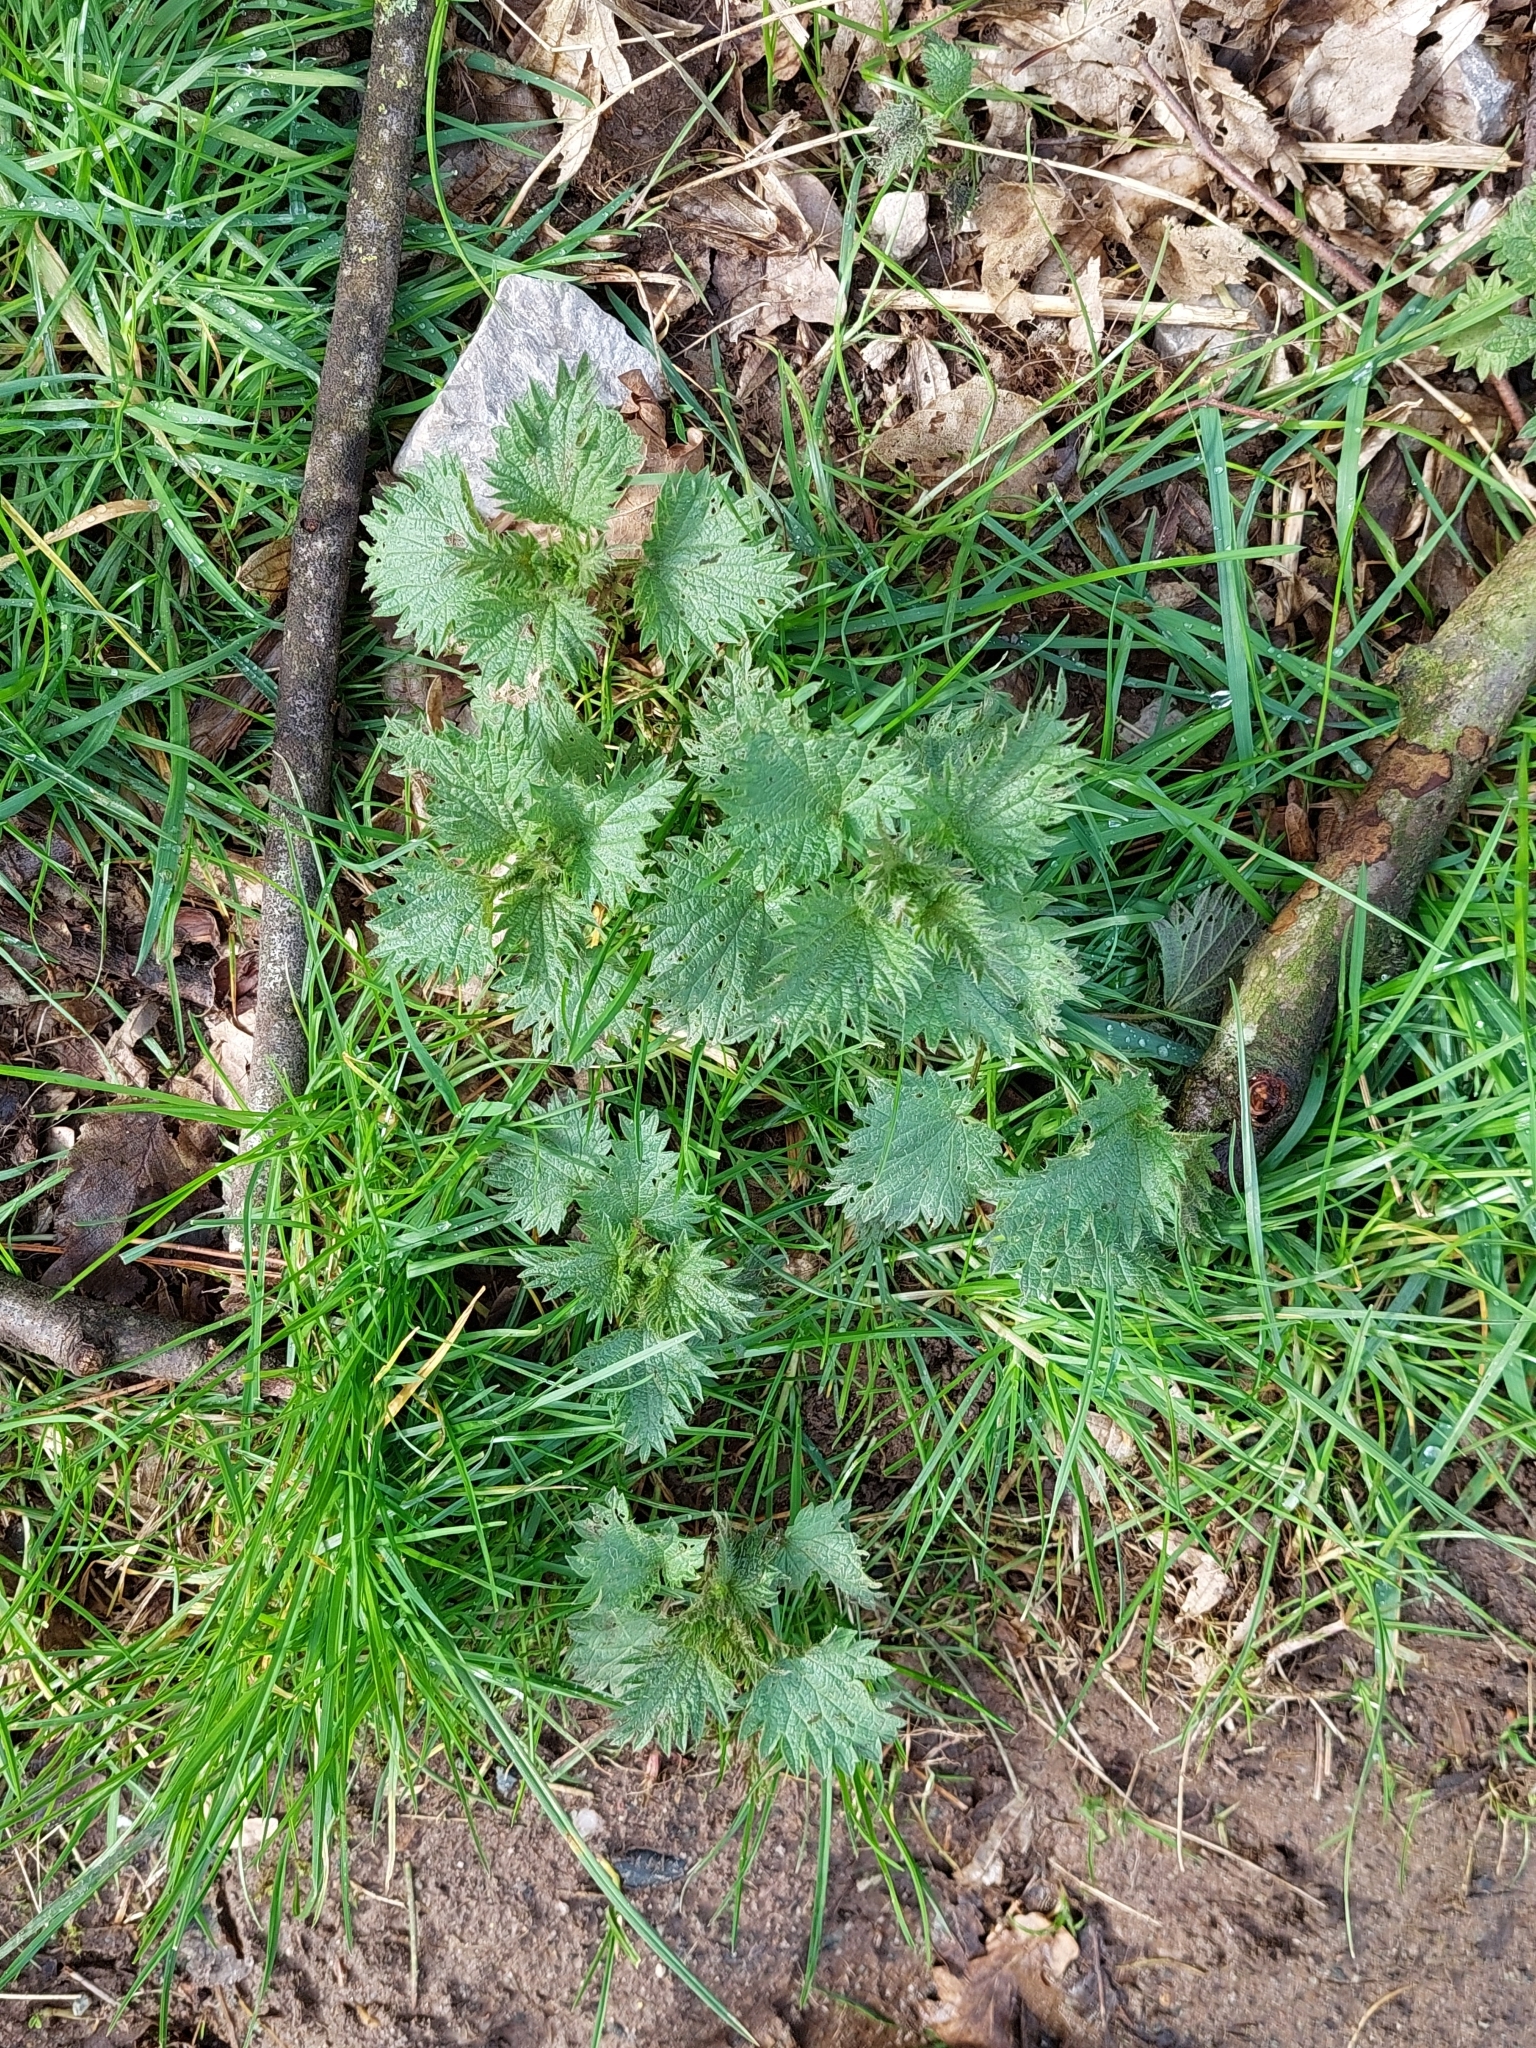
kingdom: Plantae
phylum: Tracheophyta
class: Magnoliopsida
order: Rosales
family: Urticaceae
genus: Urtica
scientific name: Urtica dioica
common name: Common nettle
